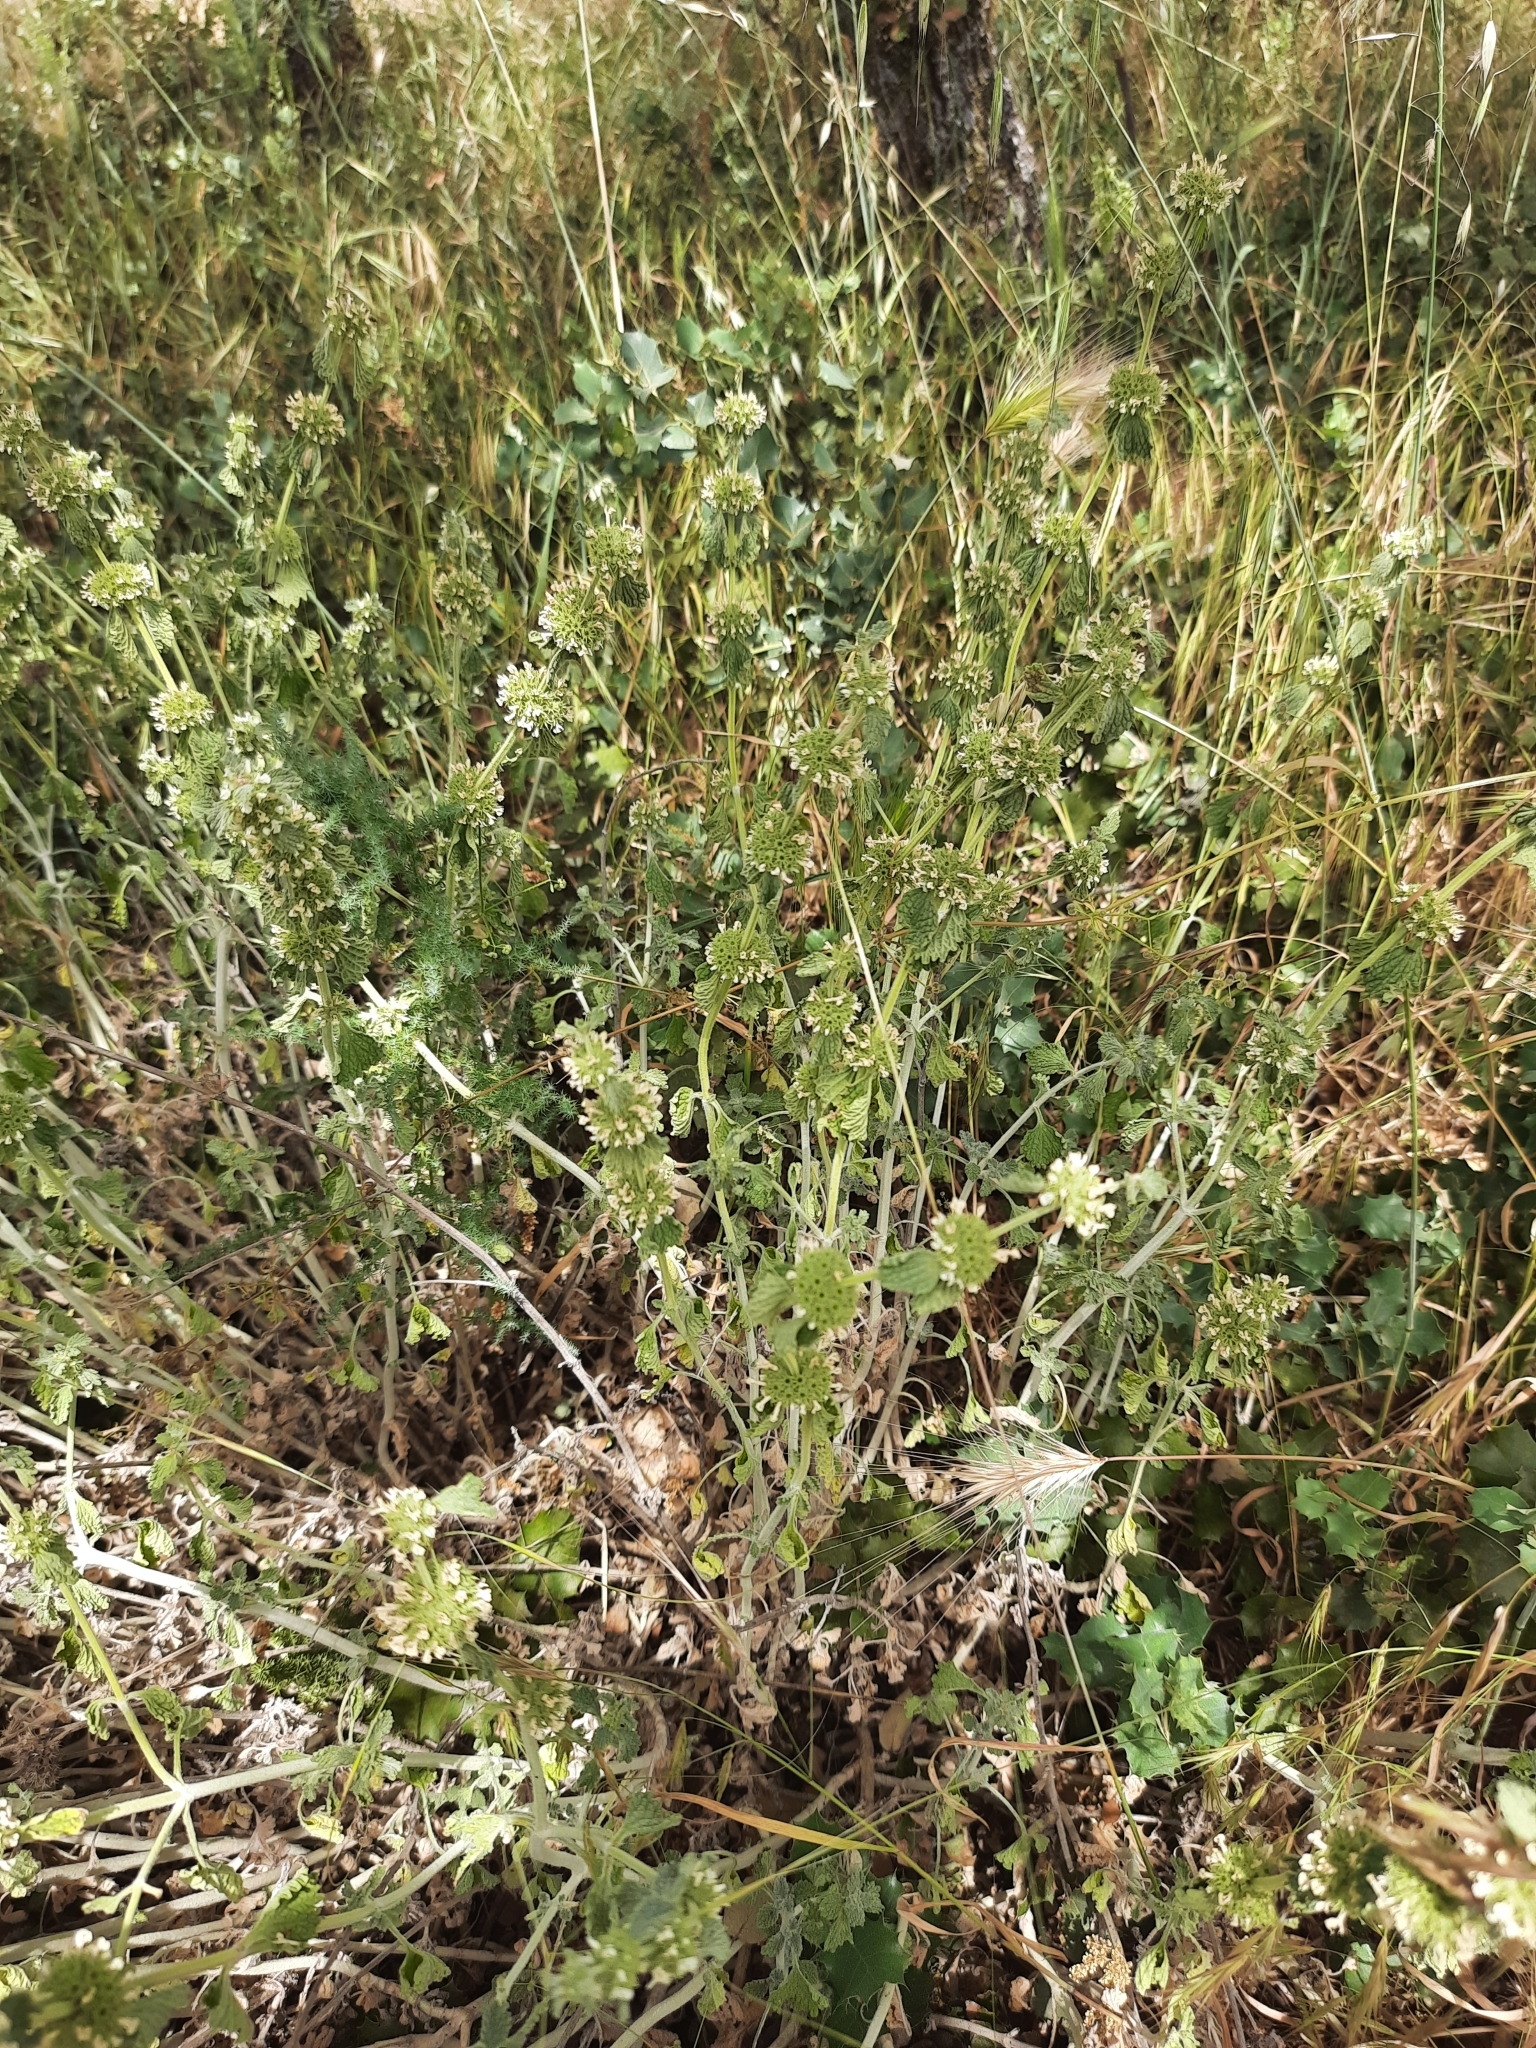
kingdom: Plantae
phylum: Tracheophyta
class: Magnoliopsida
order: Lamiales
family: Lamiaceae
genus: Marrubium
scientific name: Marrubium vulgare
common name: Horehound
